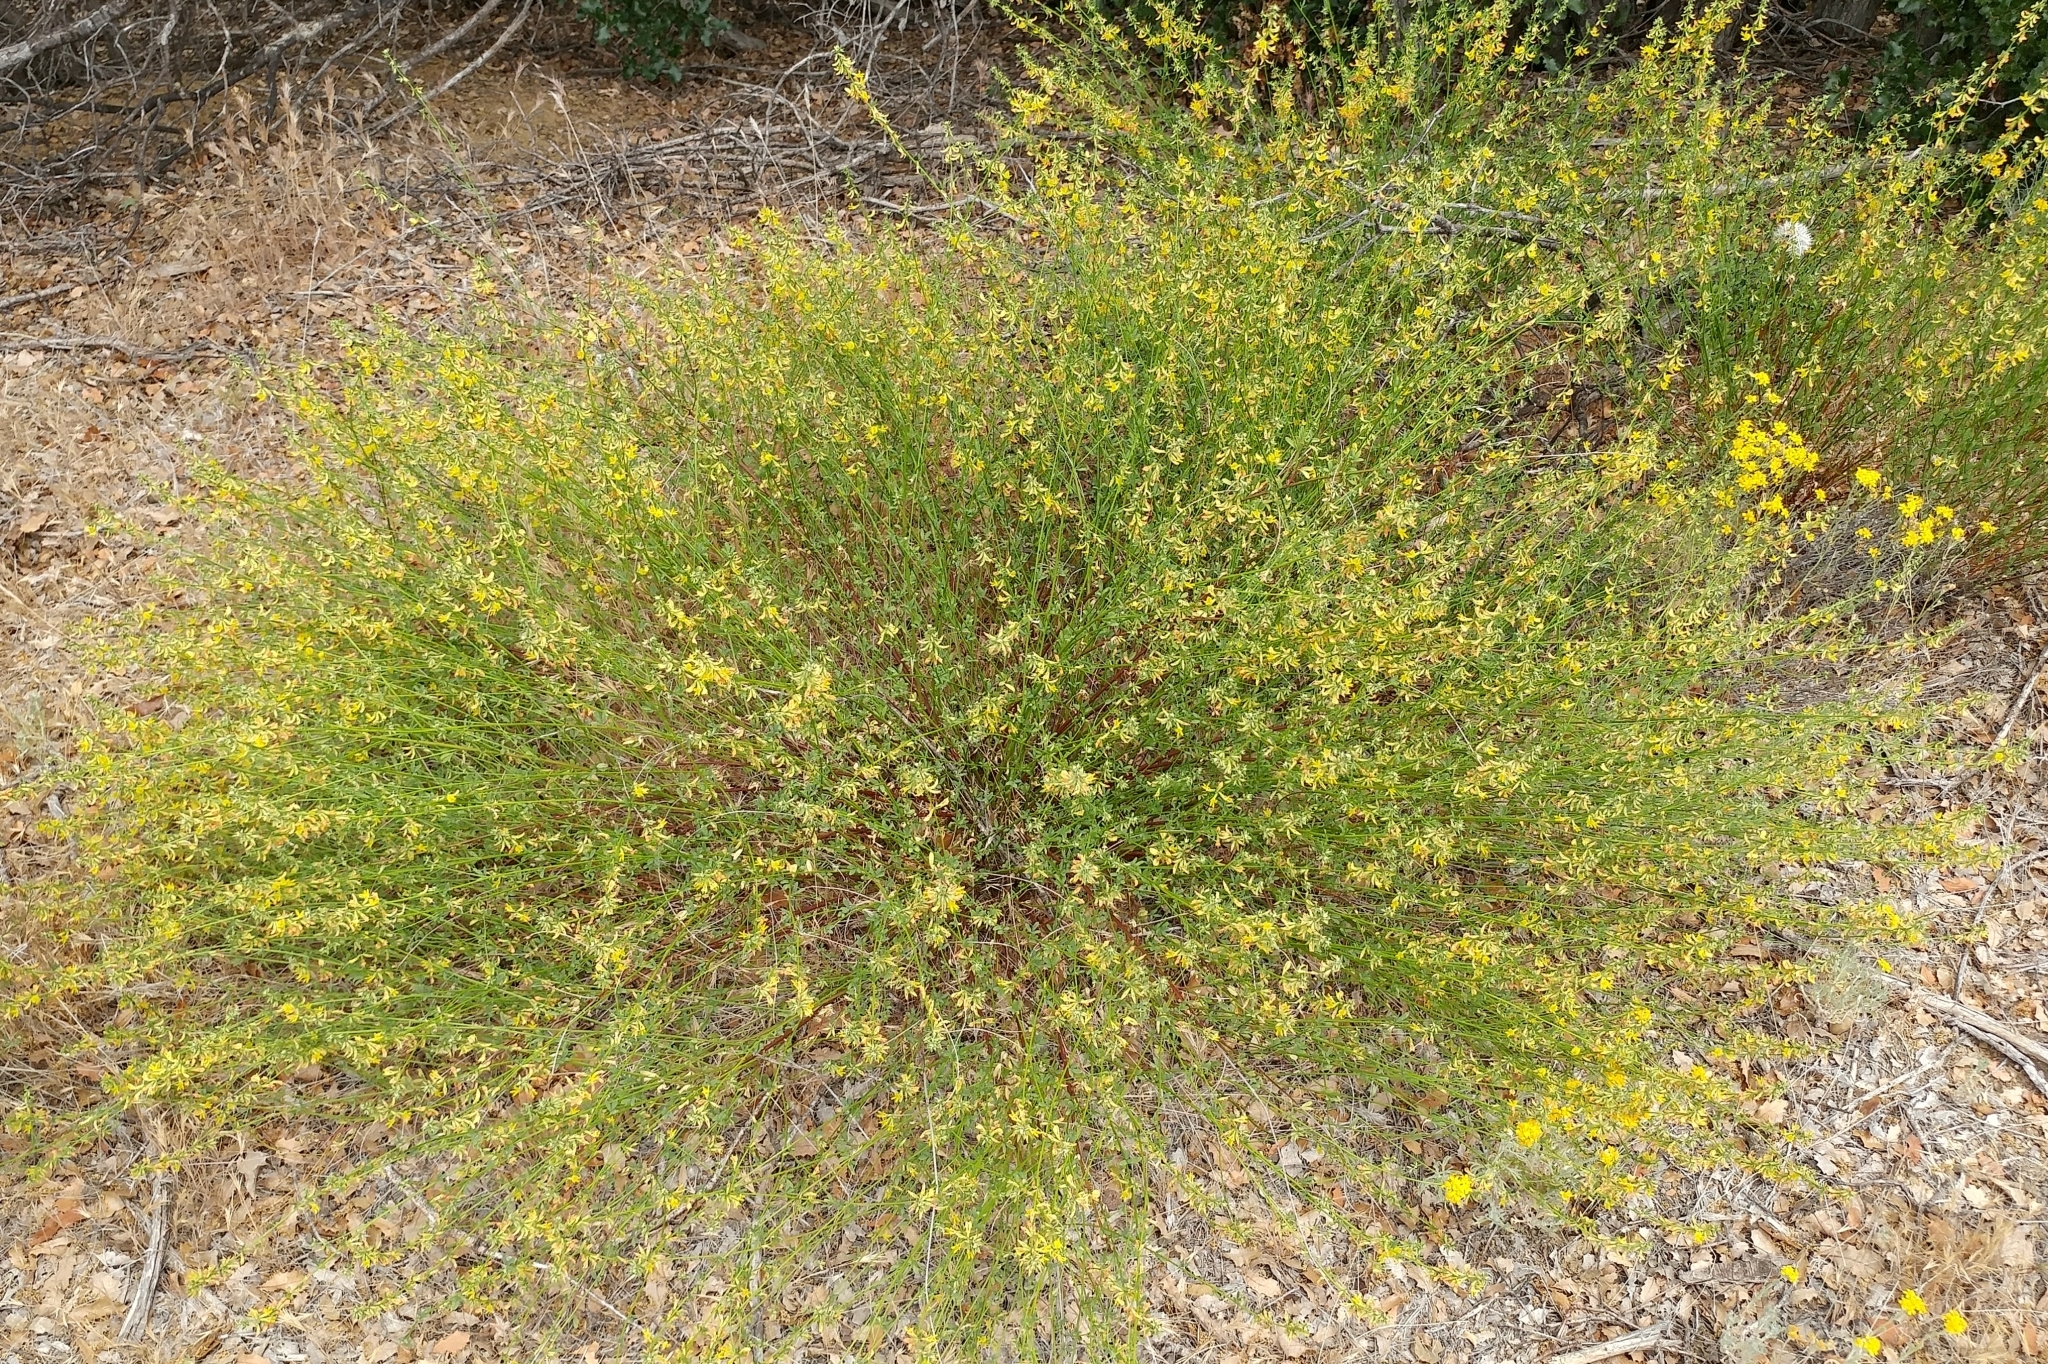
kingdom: Plantae
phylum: Tracheophyta
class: Magnoliopsida
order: Fabales
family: Fabaceae
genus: Acmispon
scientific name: Acmispon glaber
